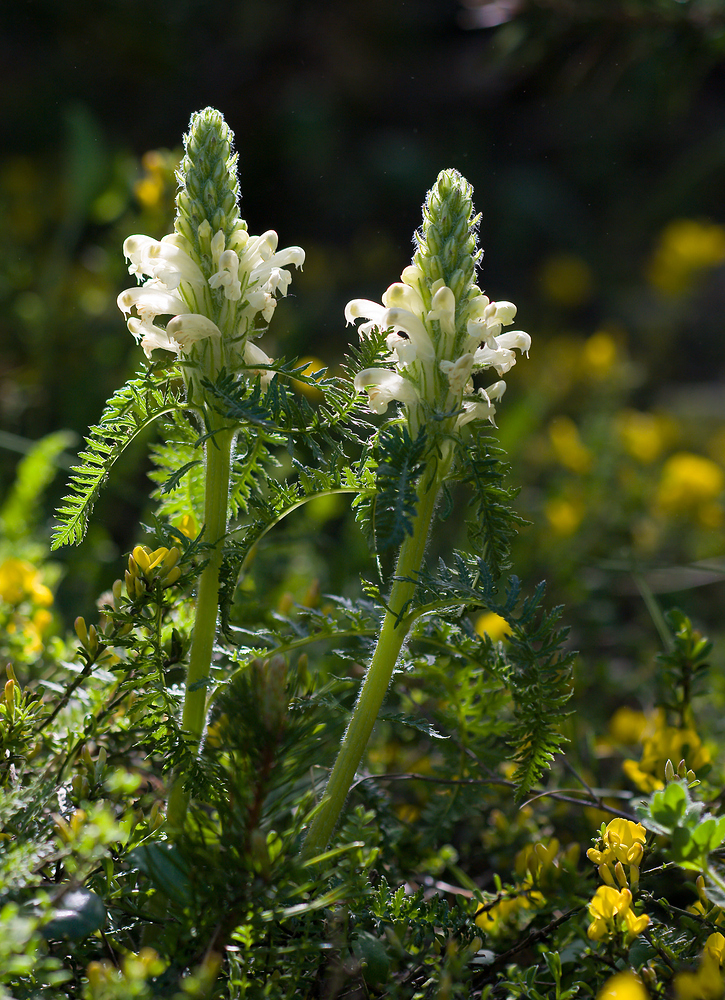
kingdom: Plantae
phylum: Tracheophyta
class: Magnoliopsida
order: Lamiales
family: Orobanchaceae
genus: Pedicularis
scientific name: Pedicularis comosa
